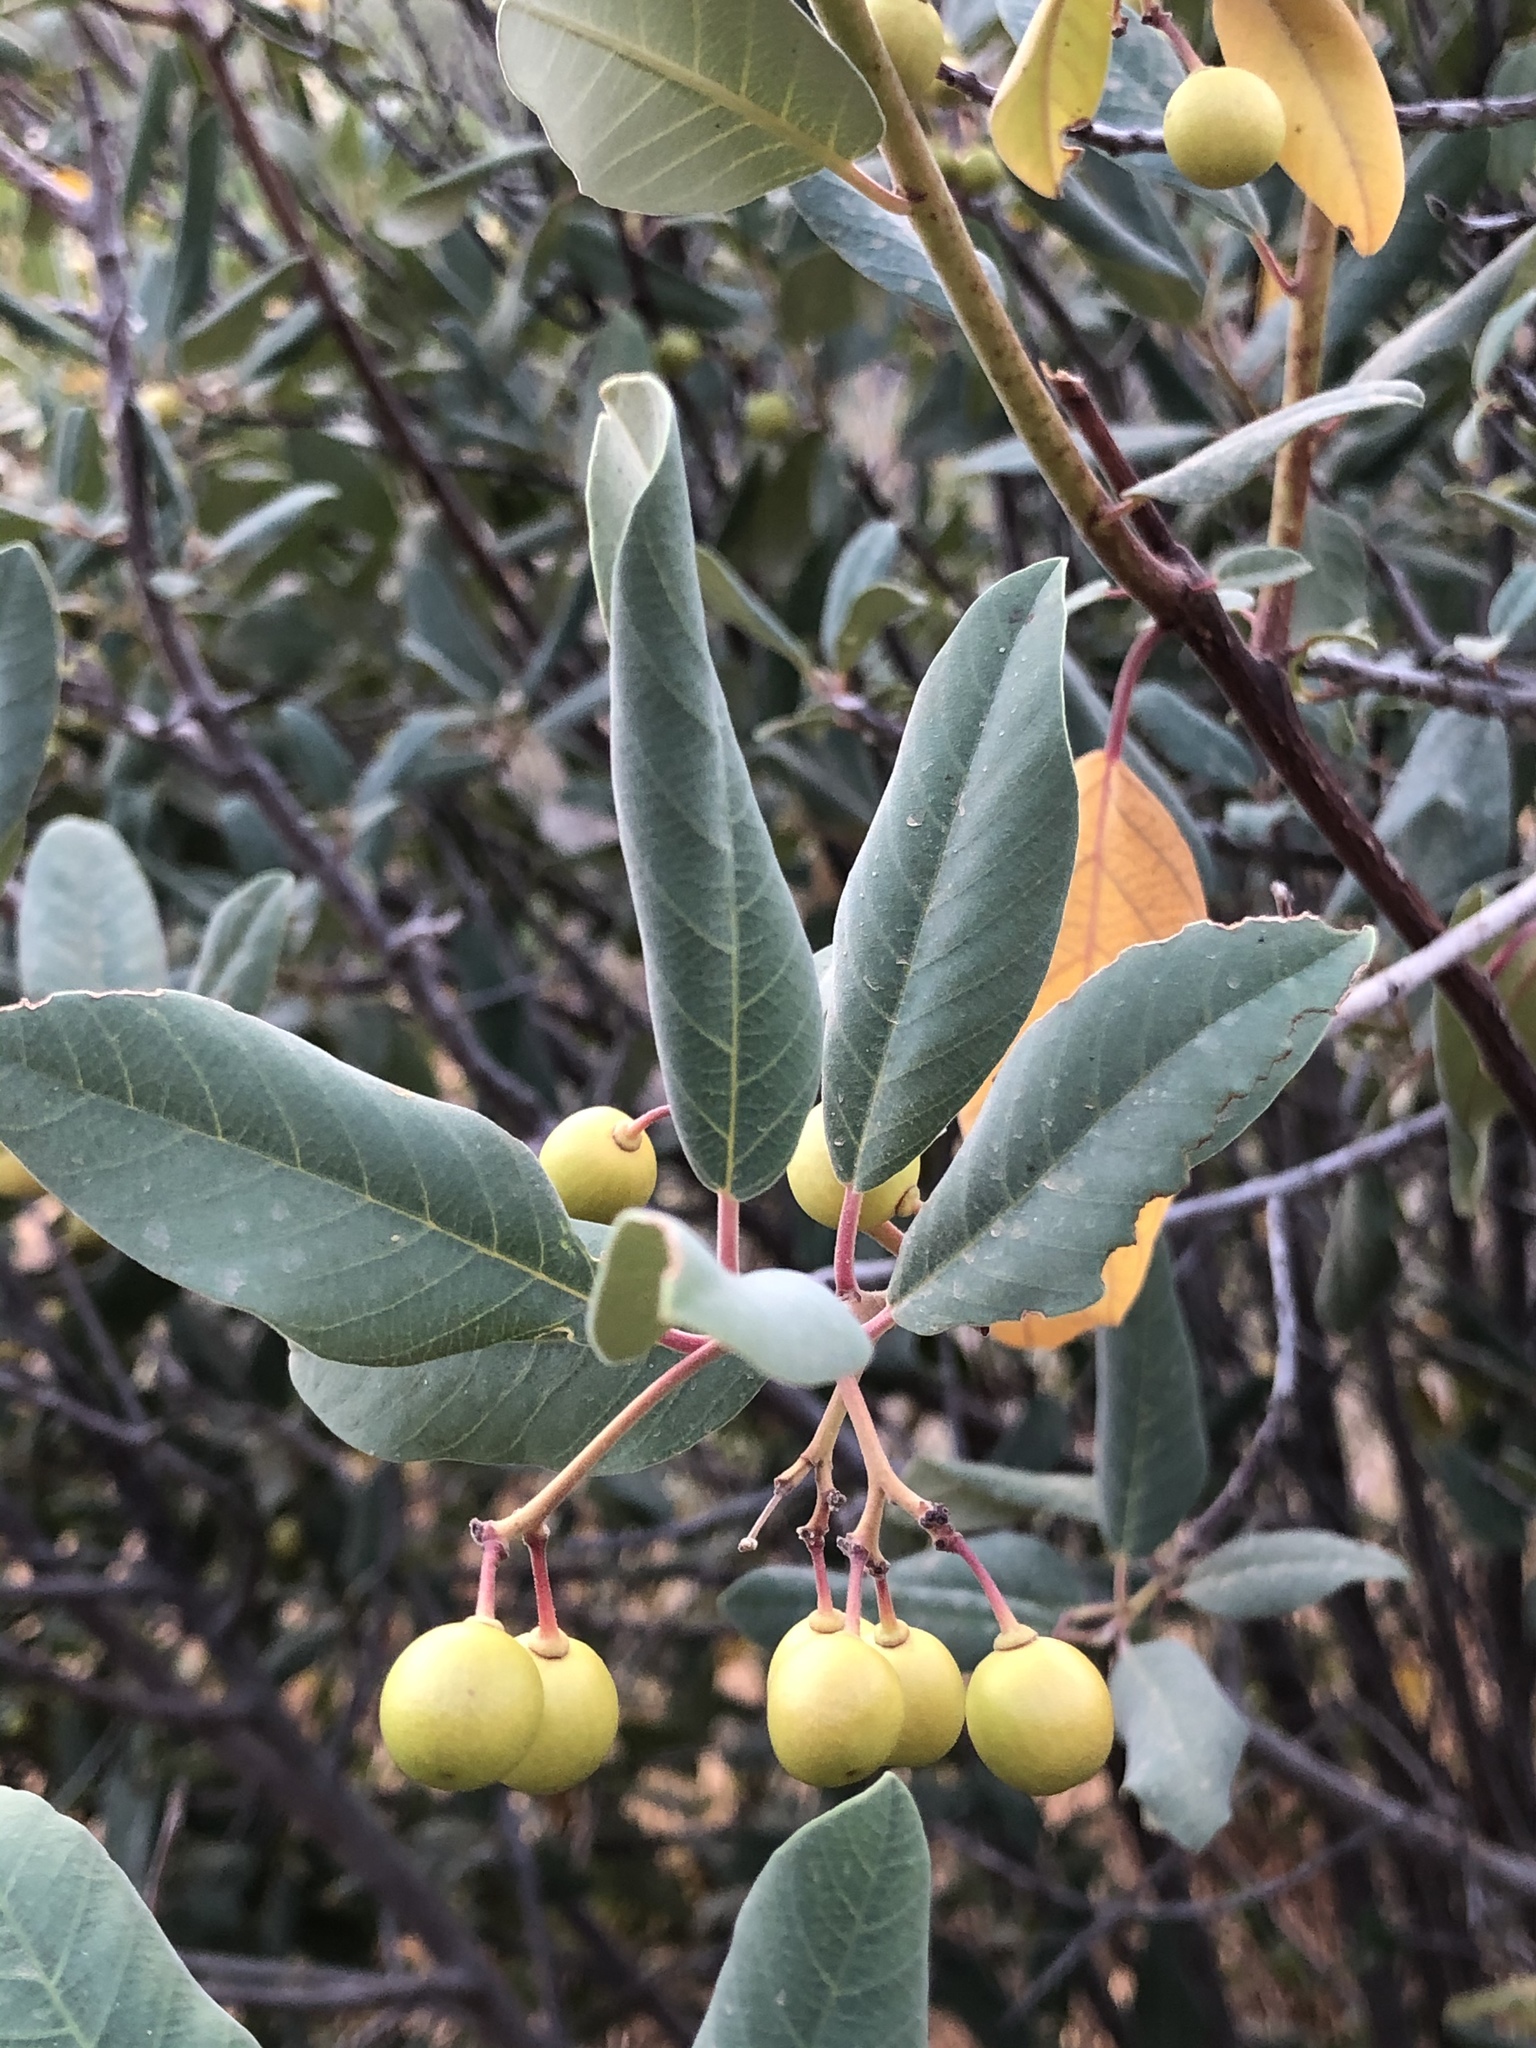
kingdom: Plantae
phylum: Tracheophyta
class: Magnoliopsida
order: Rosales
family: Rhamnaceae
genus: Frangula
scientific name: Frangula californica
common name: California buckthorn
